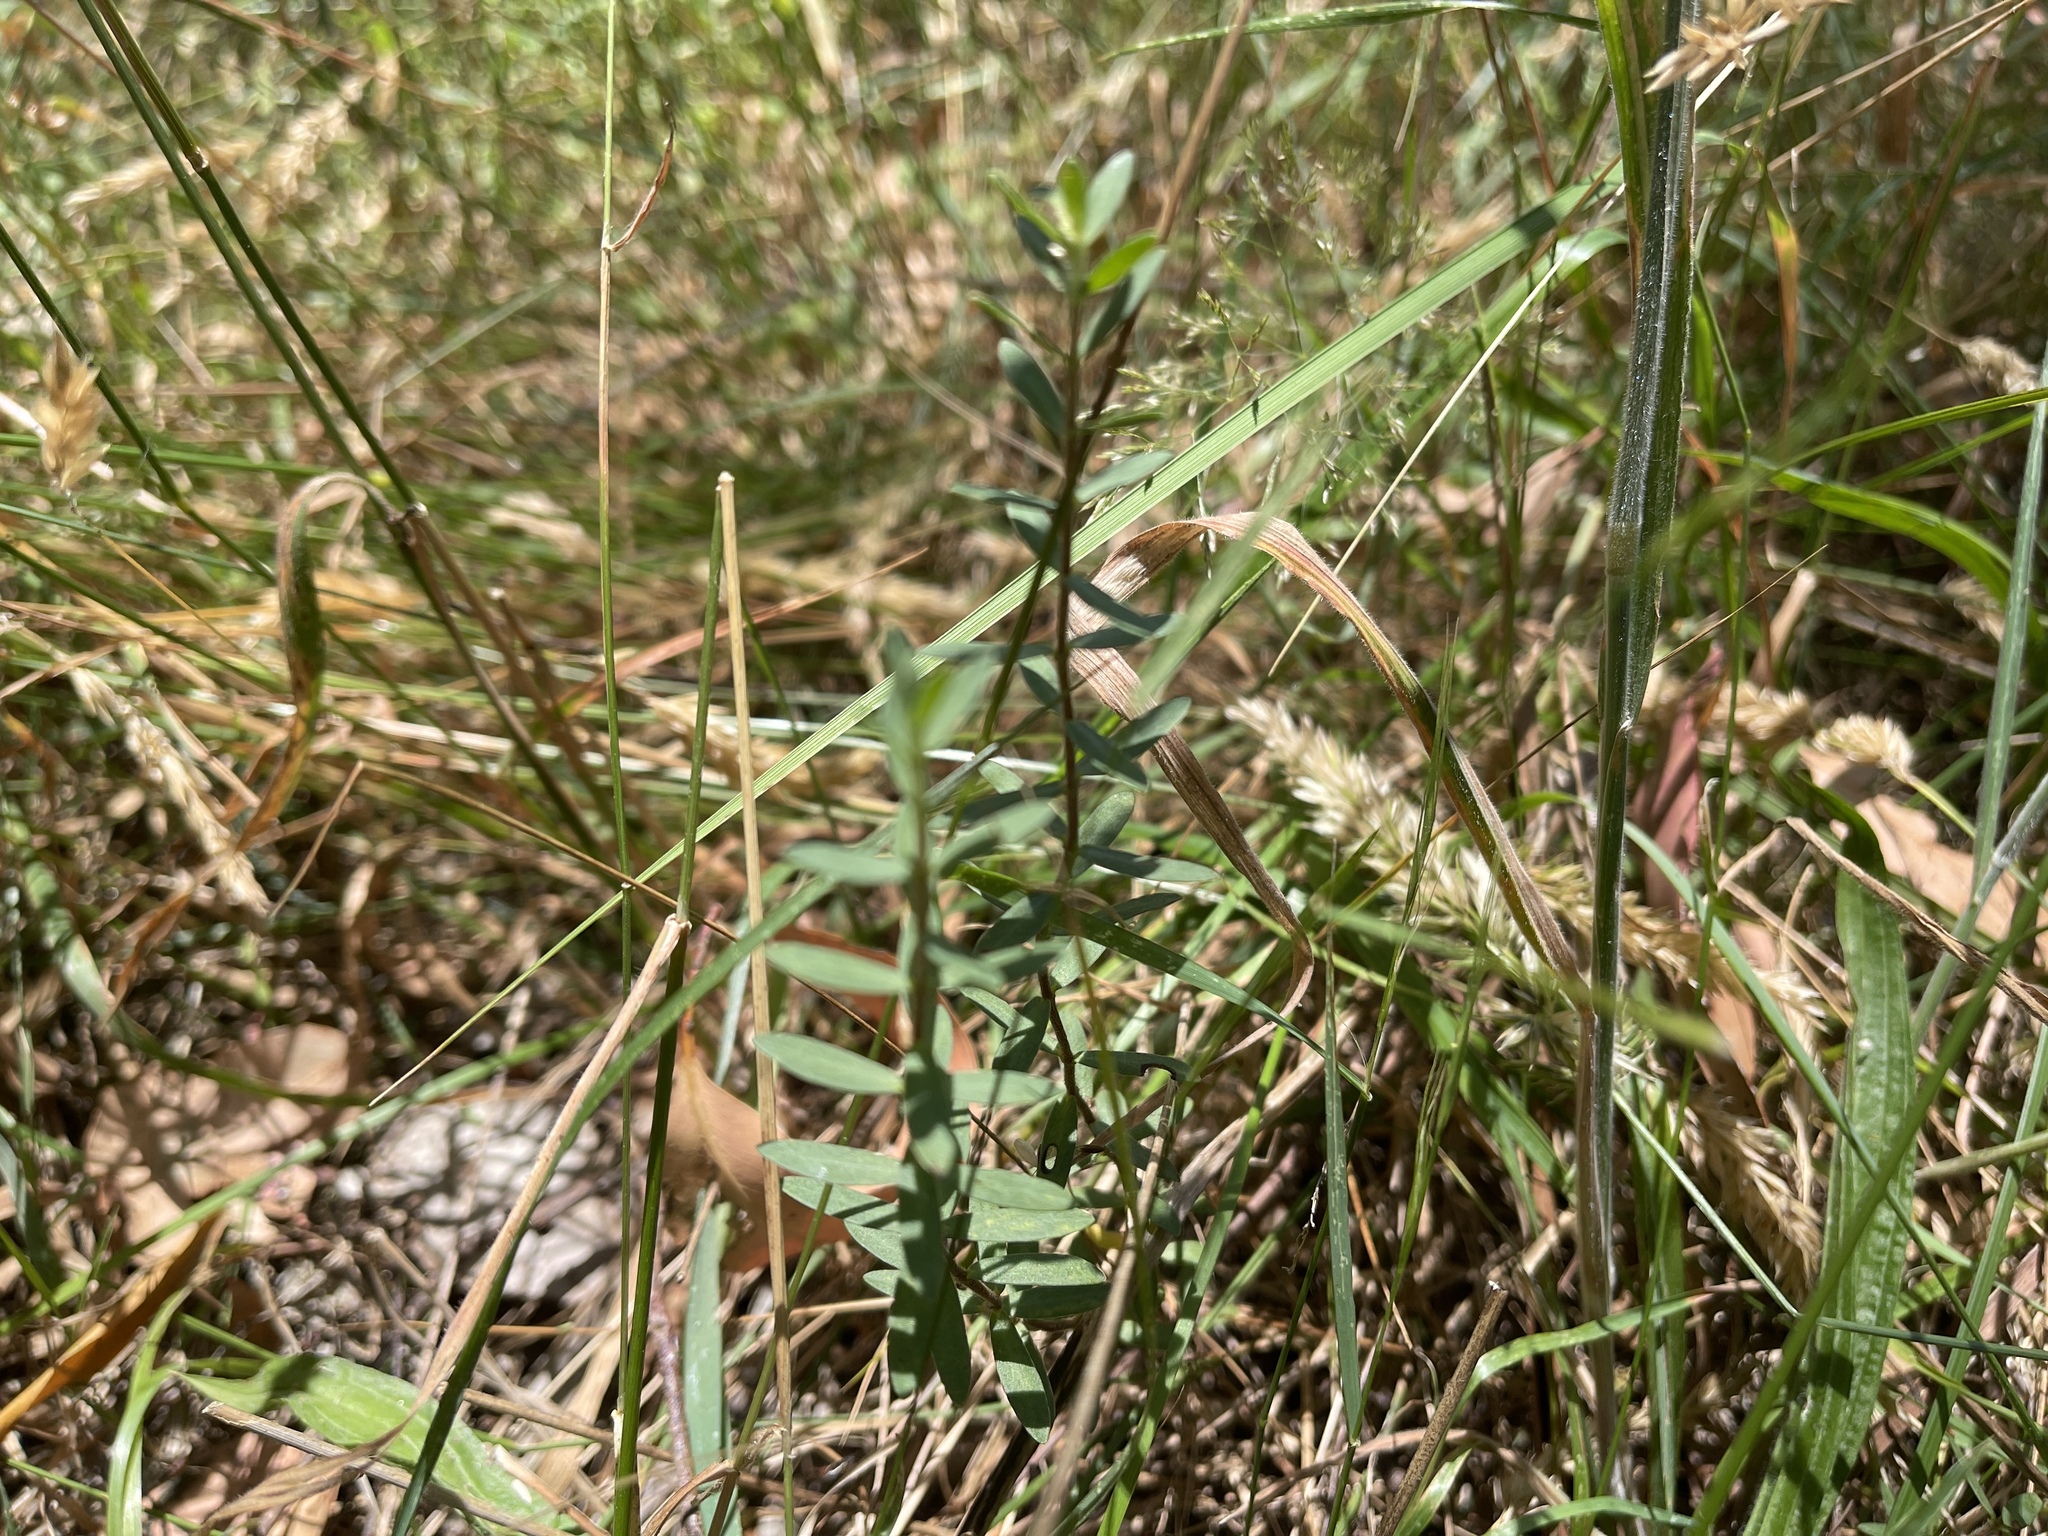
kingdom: Plantae
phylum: Tracheophyta
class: Magnoliopsida
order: Malvales
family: Thymelaeaceae
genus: Pimelea
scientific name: Pimelea linifolia
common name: Queen-of-the-bush
